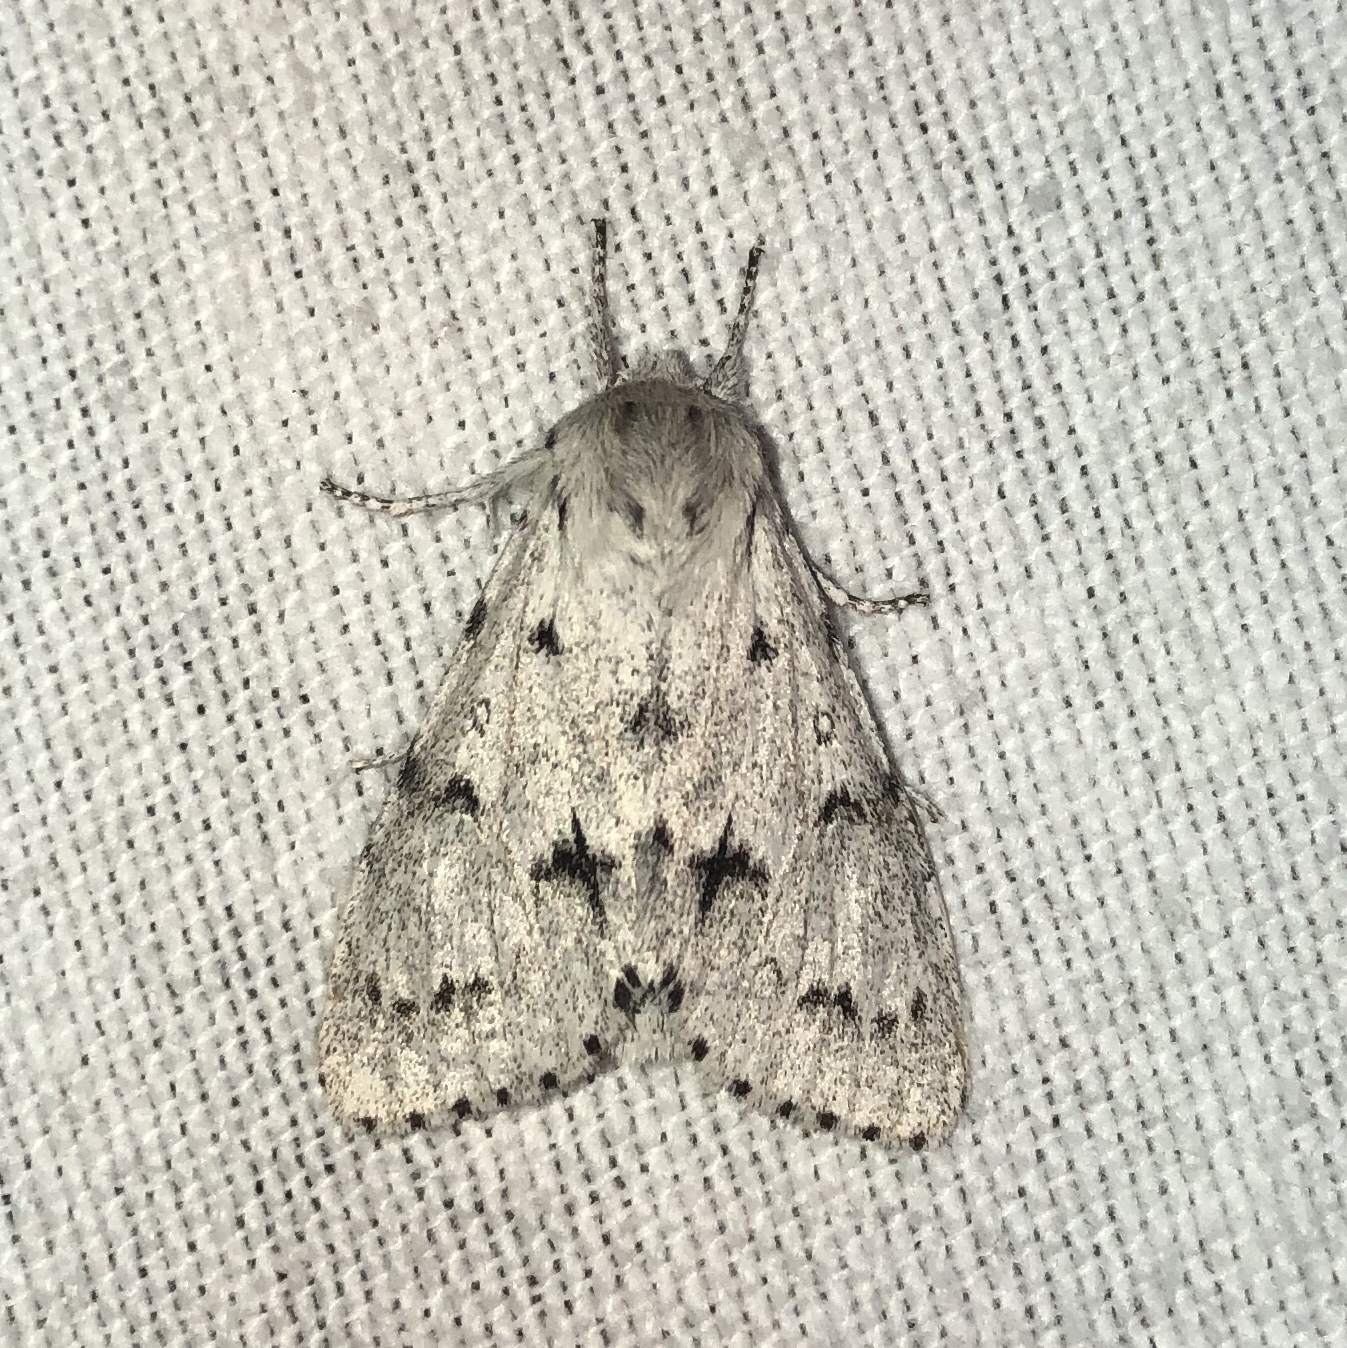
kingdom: Animalia
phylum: Arthropoda
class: Insecta
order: Lepidoptera
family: Noctuidae
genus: Acronicta
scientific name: Acronicta vulpina
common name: Miller dagger
